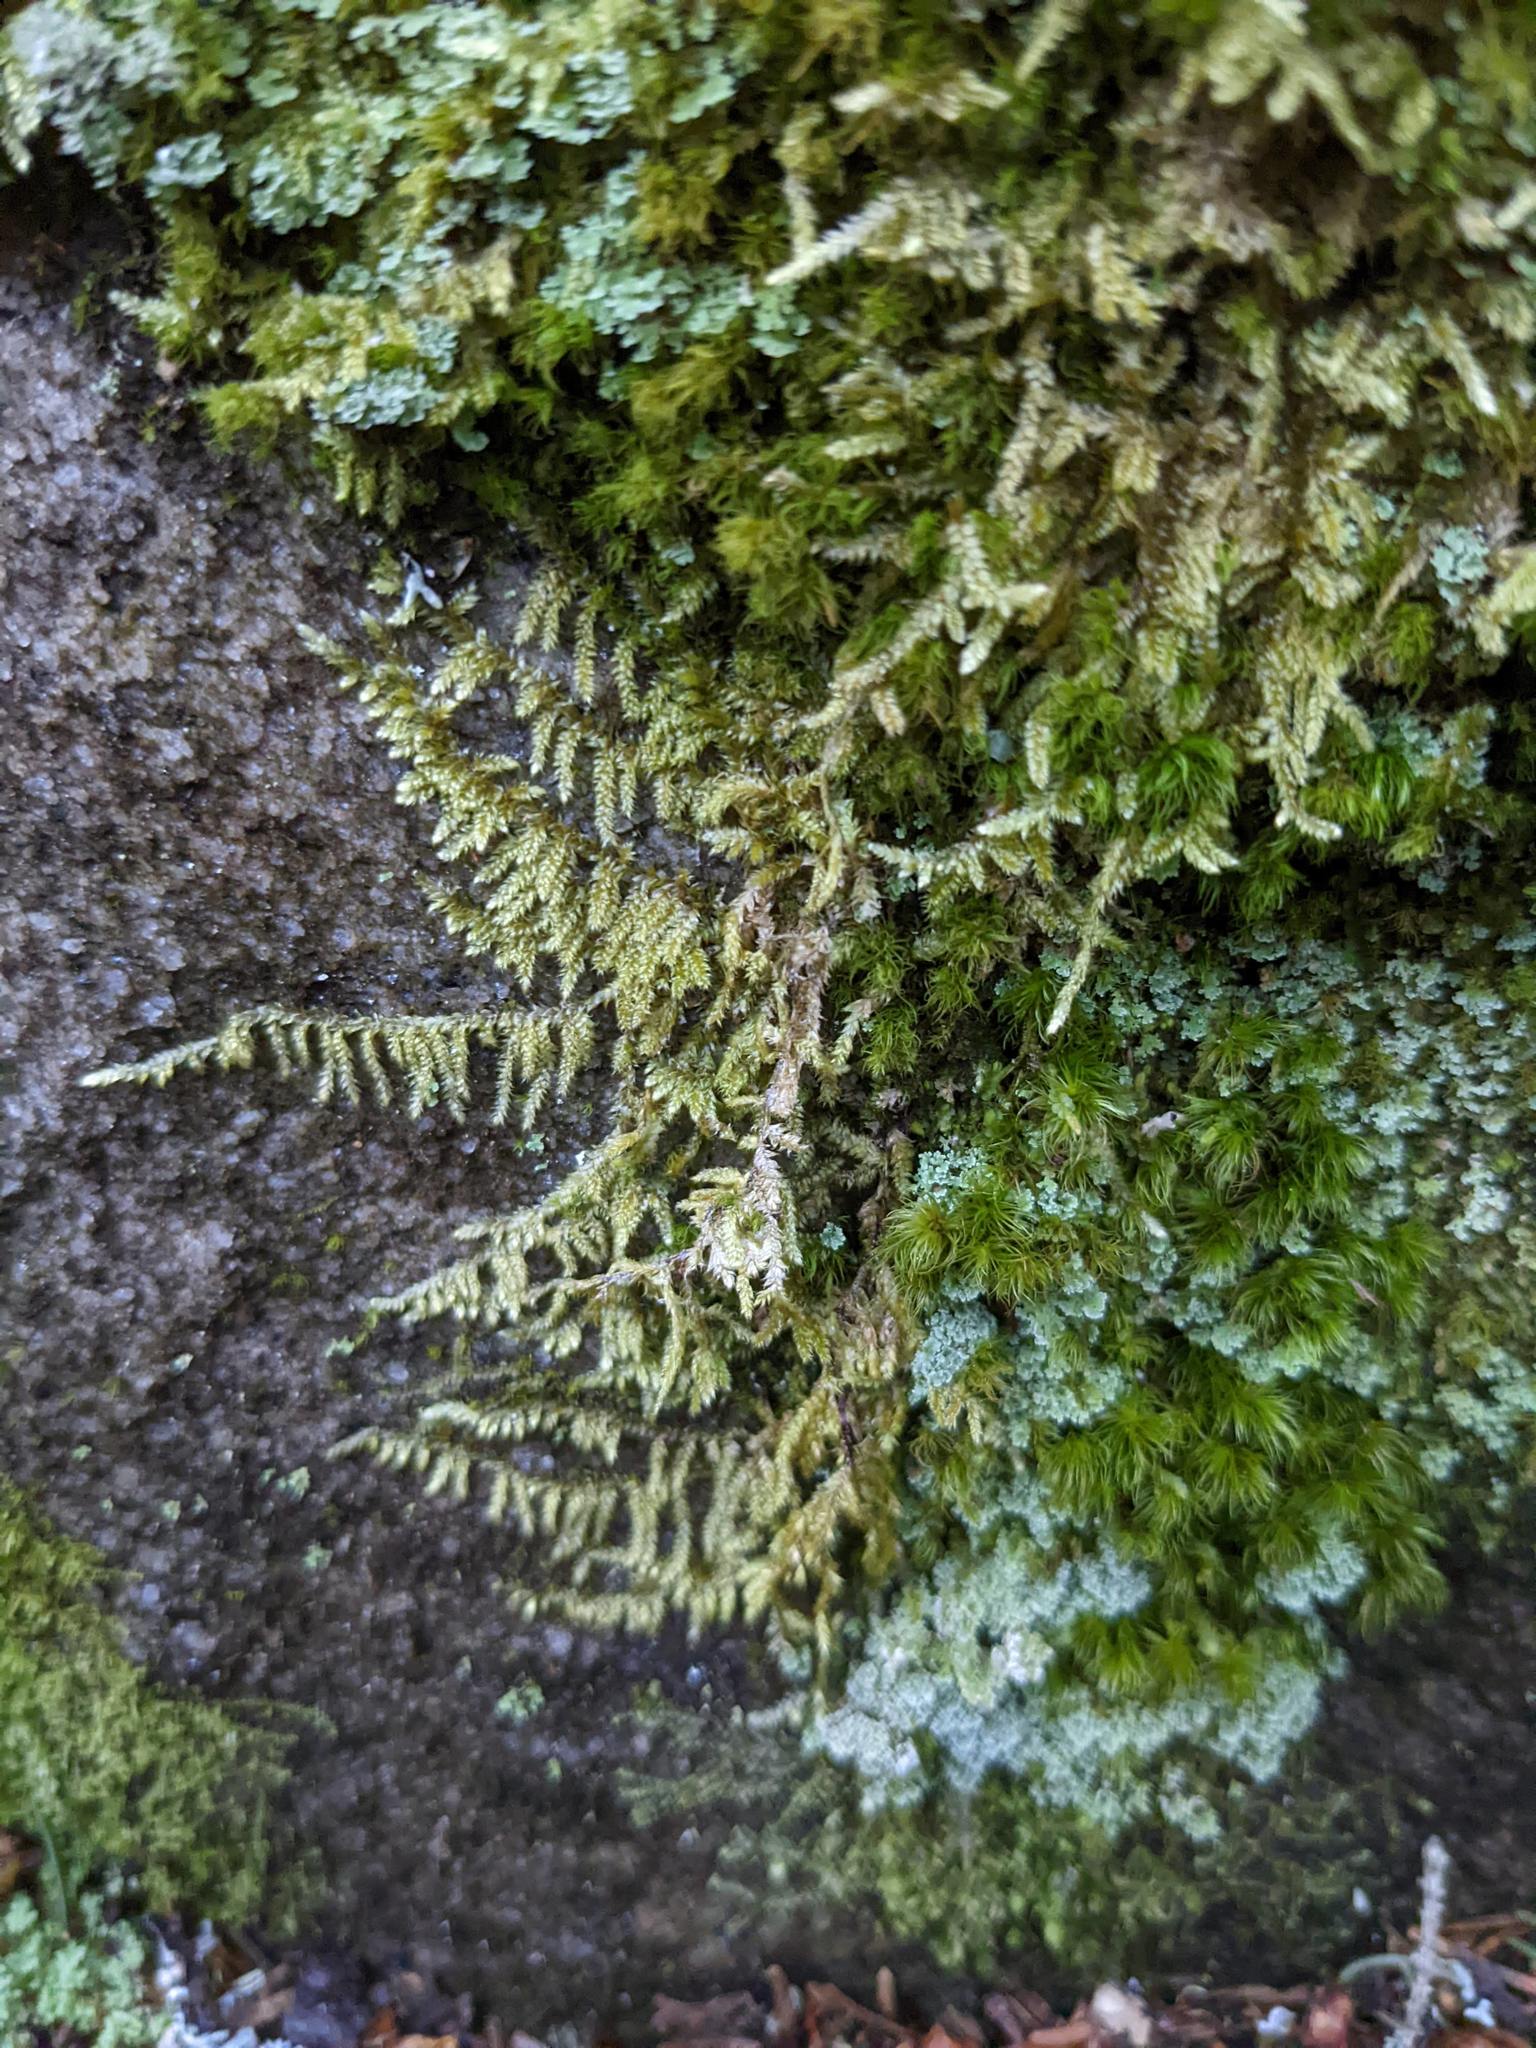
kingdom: Plantae
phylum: Bryophyta
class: Bryopsida
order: Hypnales
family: Callicladiaceae
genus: Callicladium
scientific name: Callicladium imponens
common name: Brocade moss
